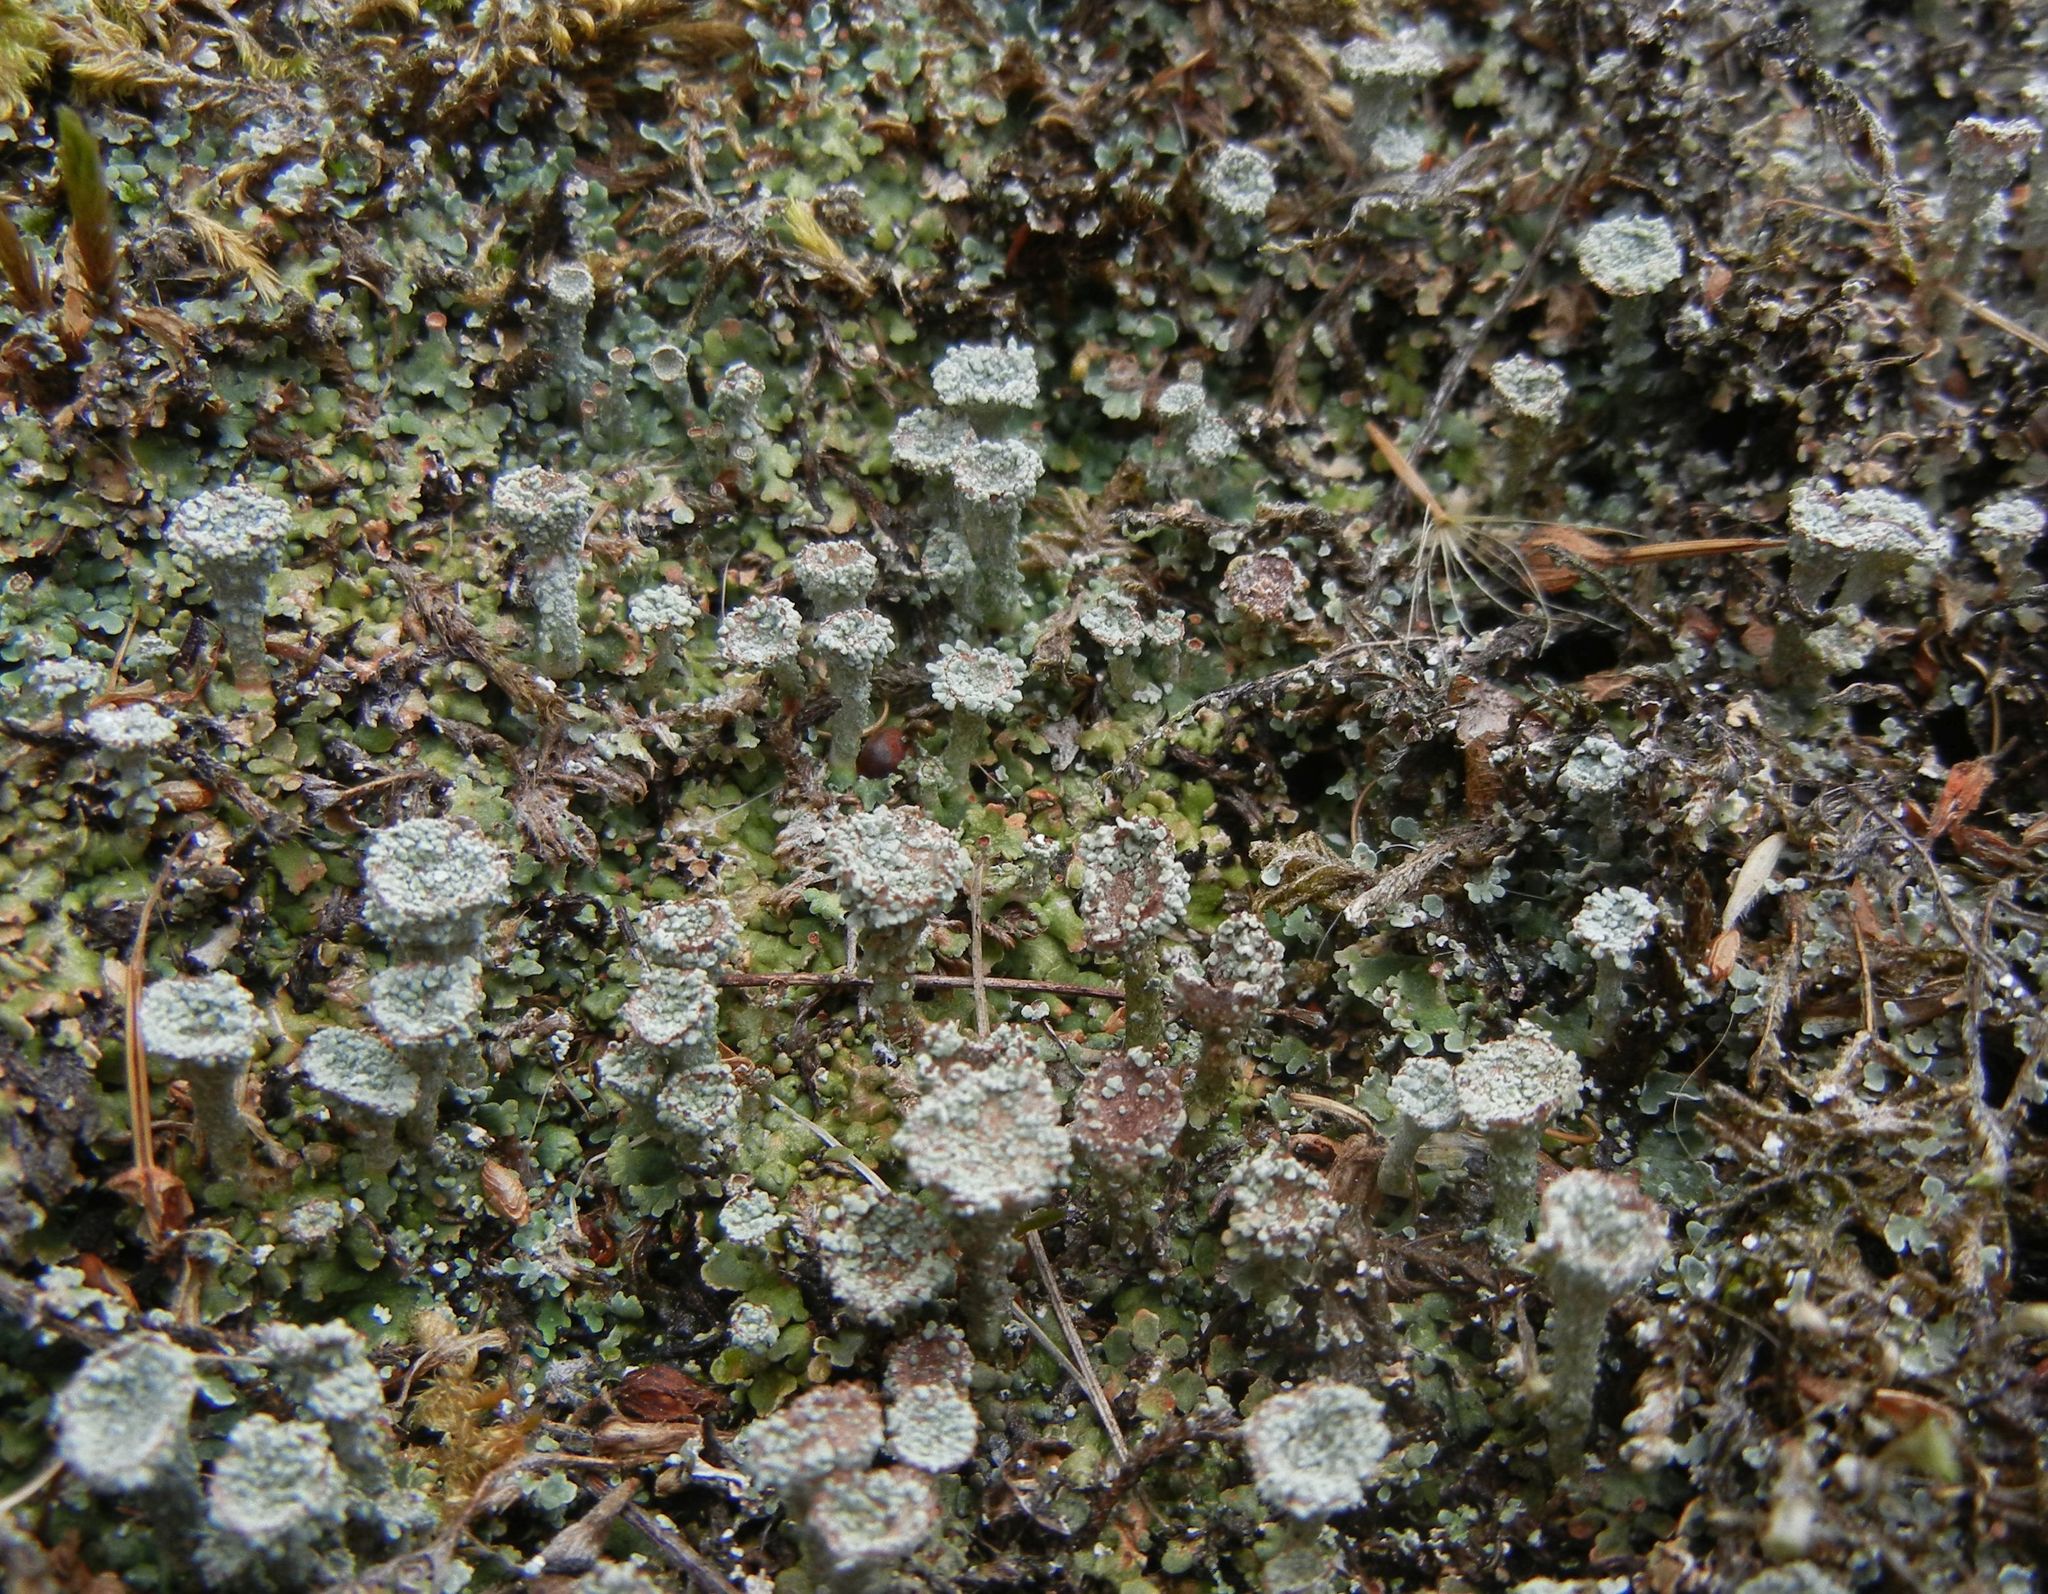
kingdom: Fungi
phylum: Ascomycota
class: Lecanoromycetes
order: Lecanorales
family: Cladoniaceae
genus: Cladonia
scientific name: Cladonia pocillum
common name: Rosette pixie-cup lichen
